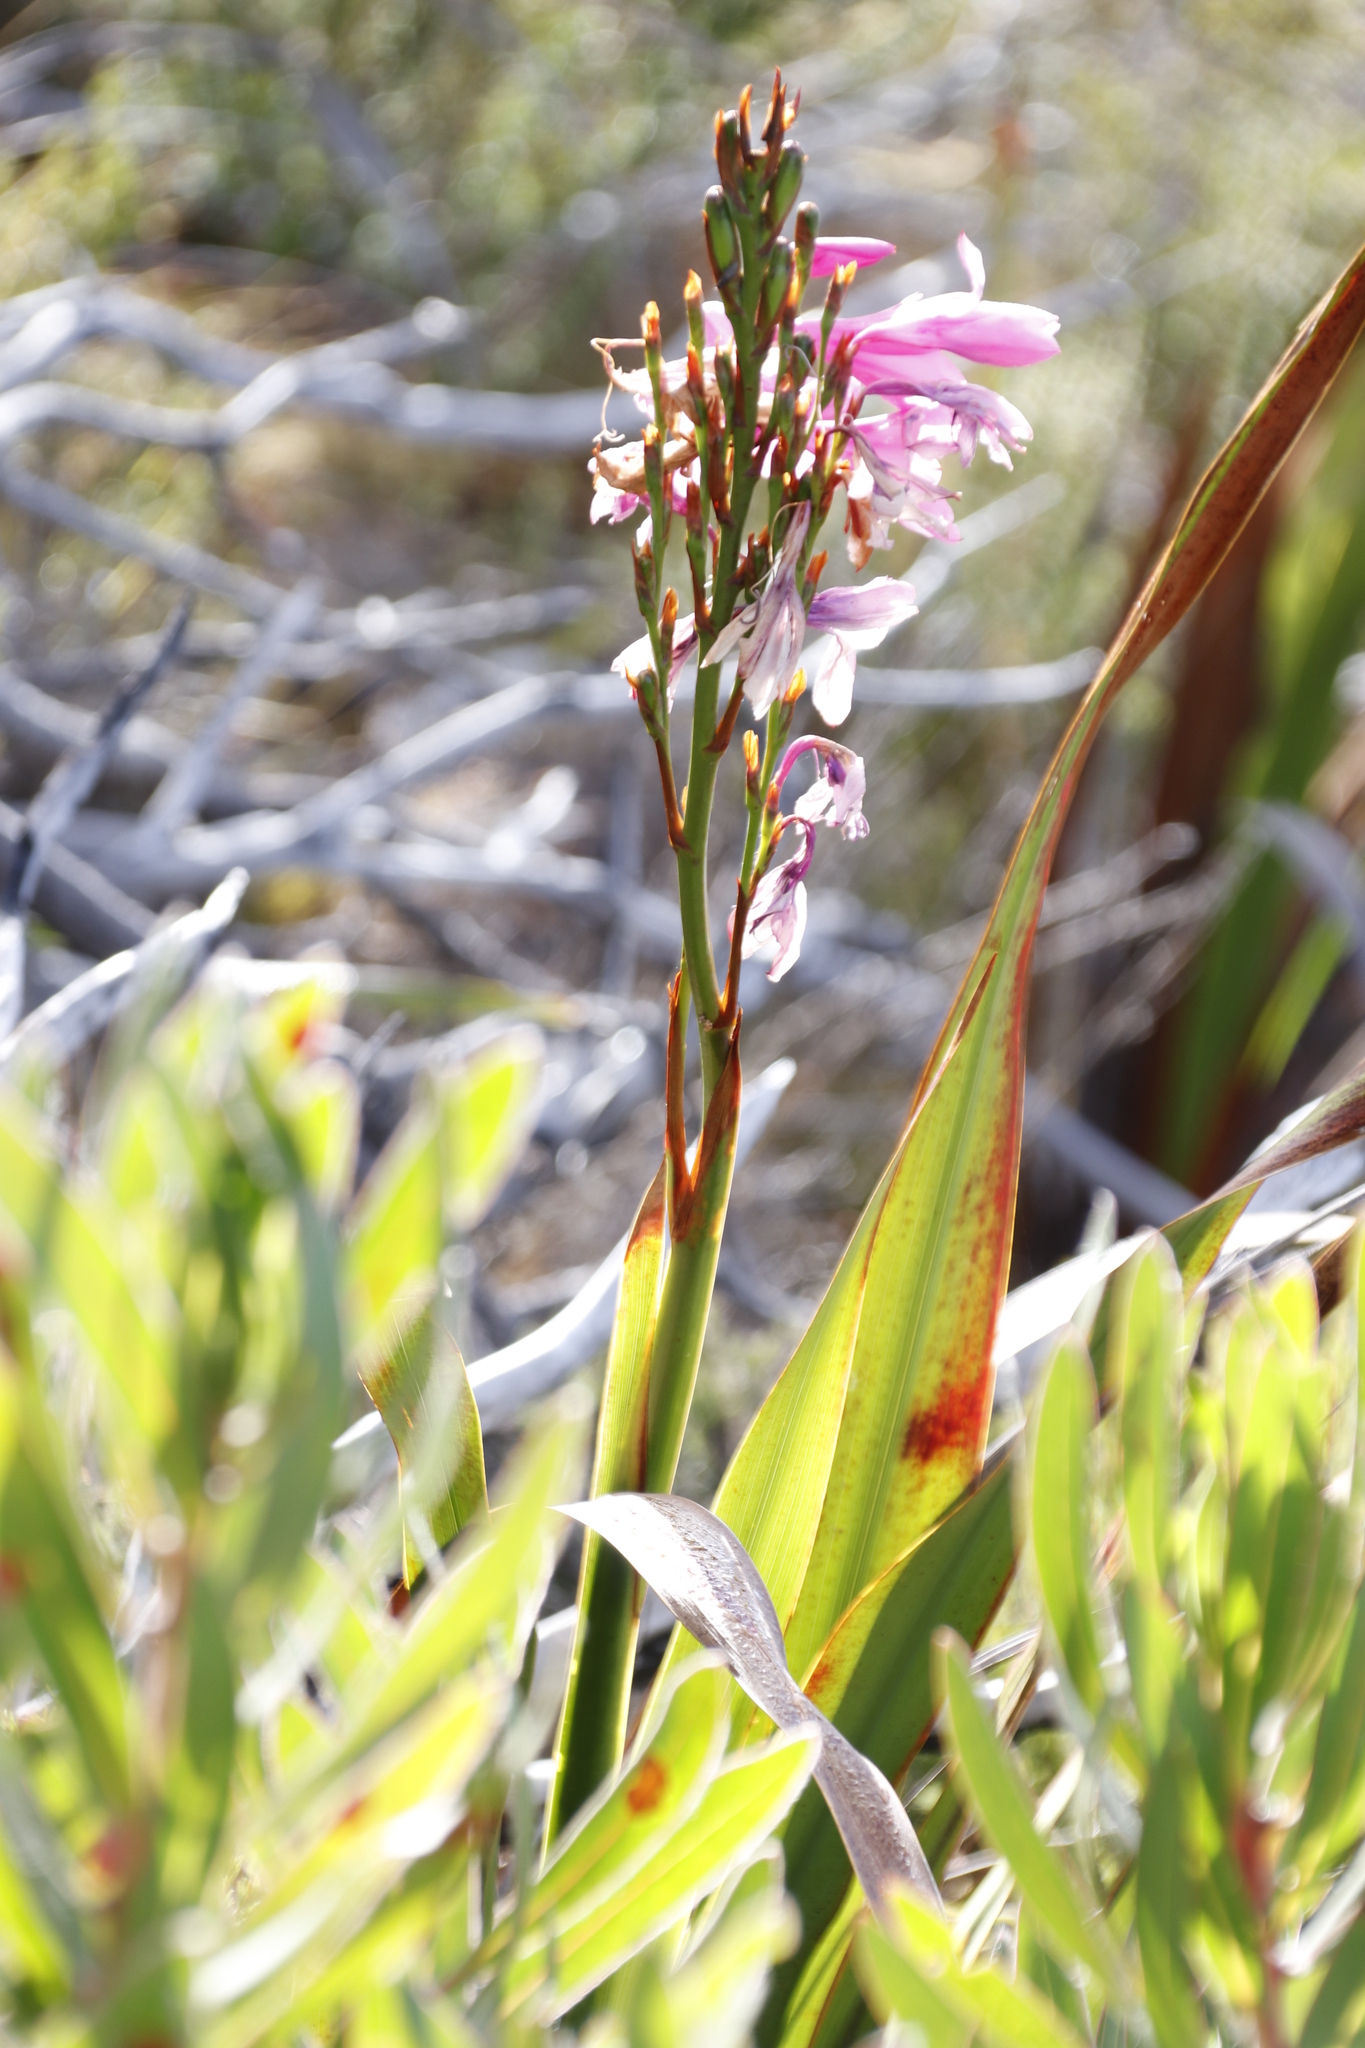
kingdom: Plantae
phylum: Tracheophyta
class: Liliopsida
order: Asparagales
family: Iridaceae
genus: Watsonia
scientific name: Watsonia borbonica
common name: Bugle-lily
